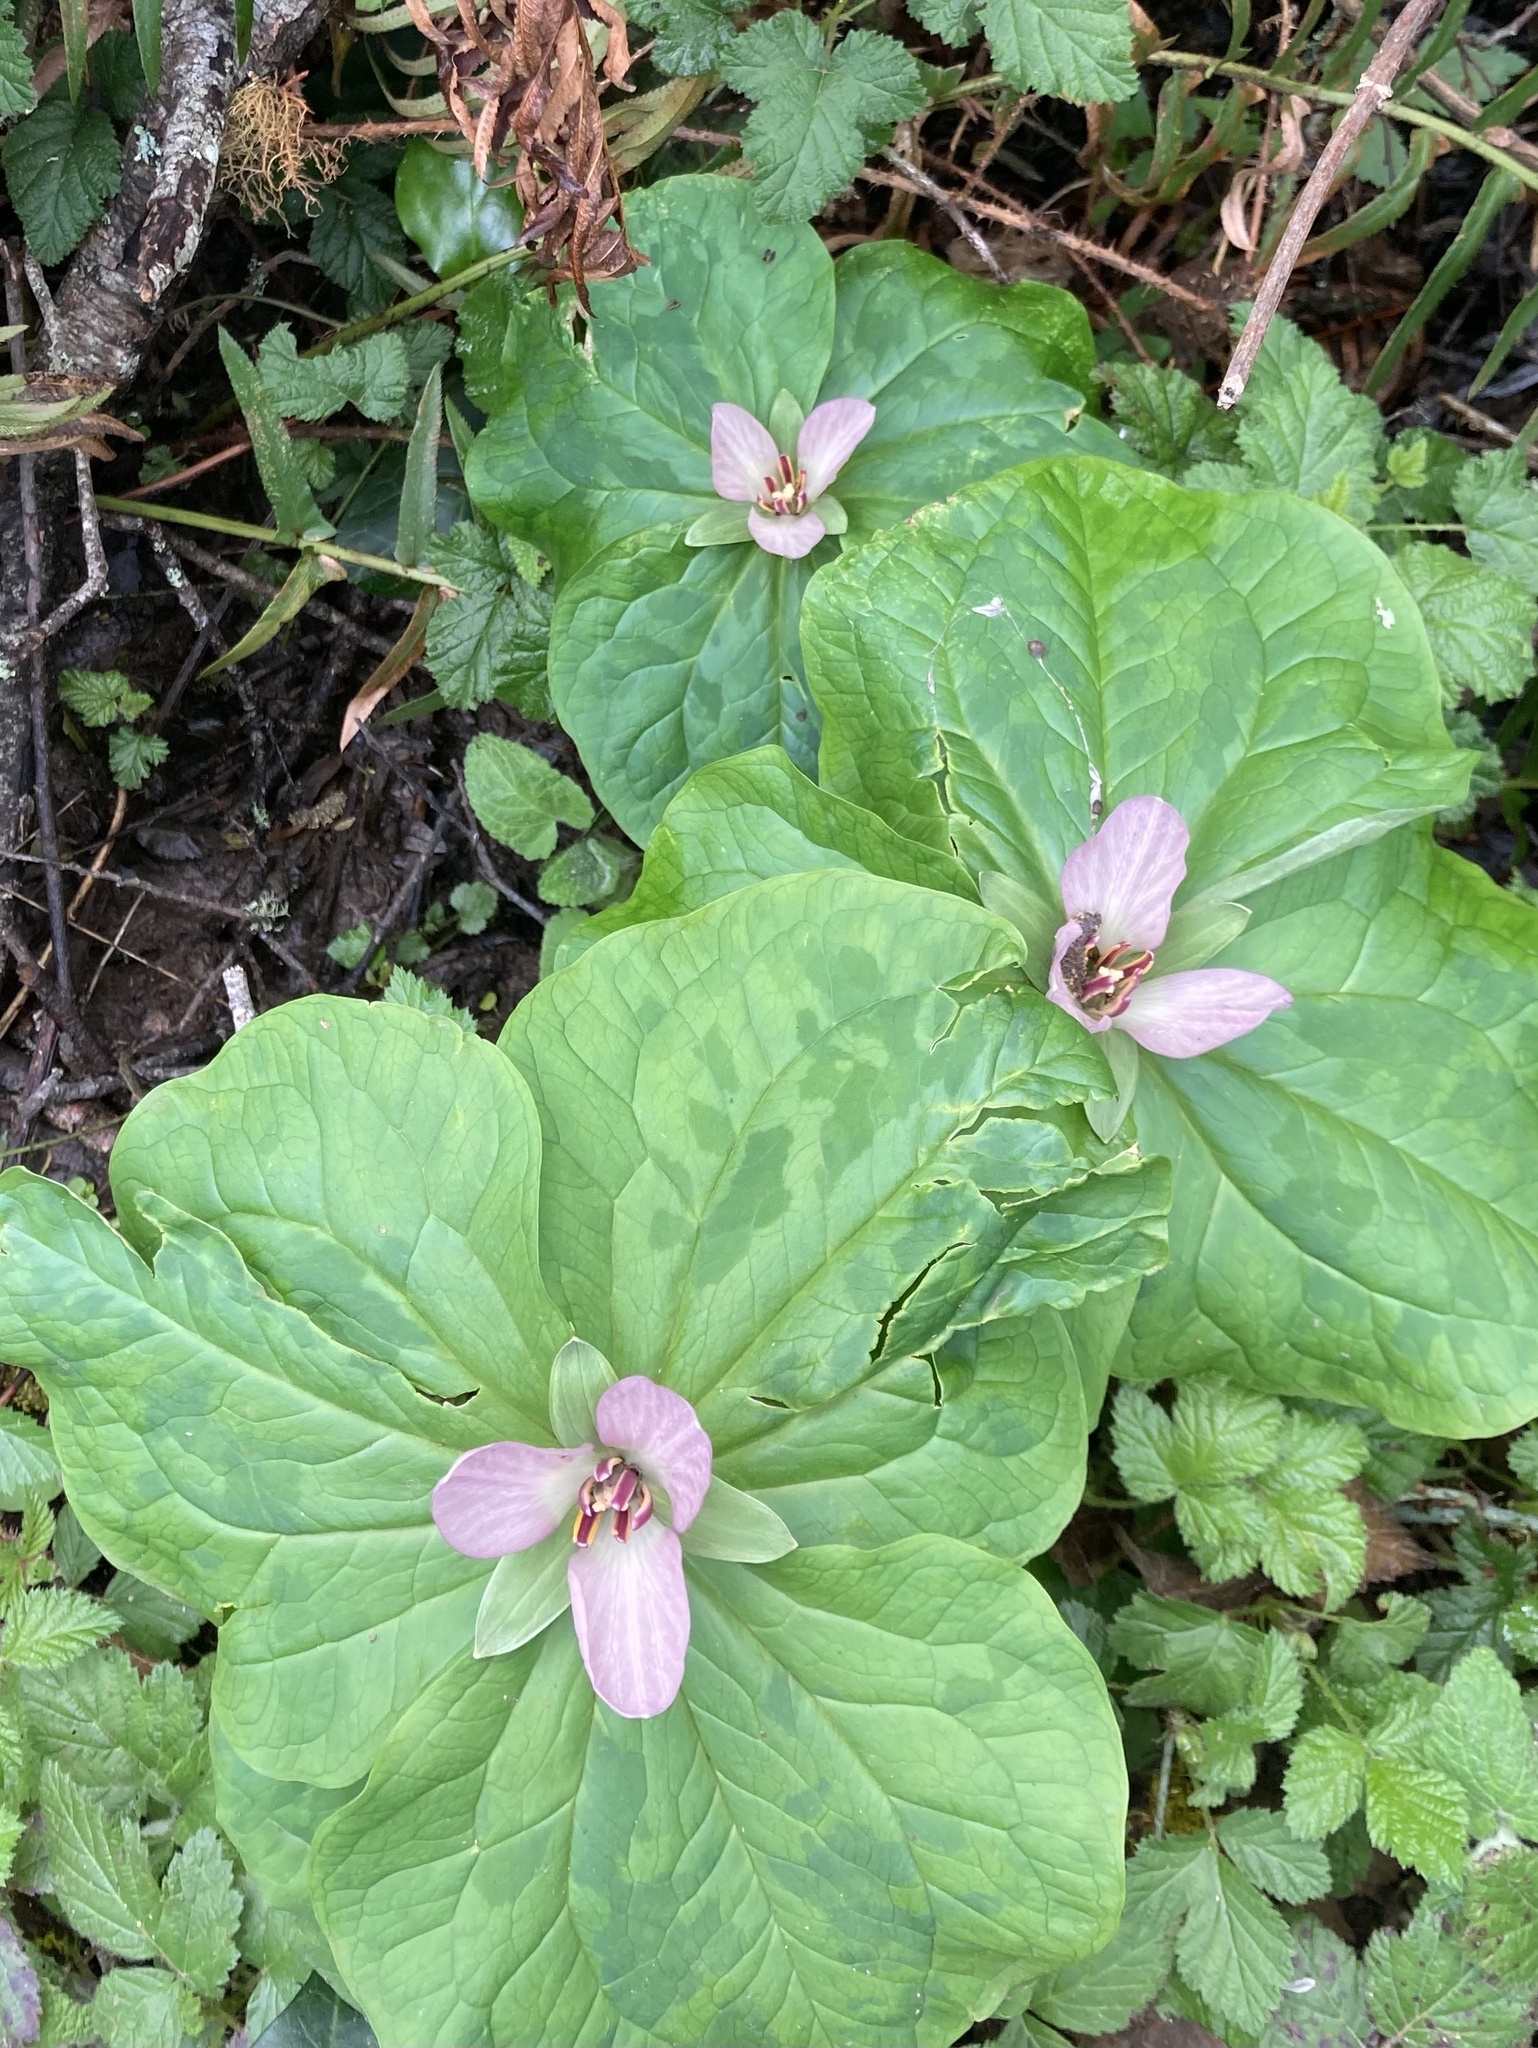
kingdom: Plantae
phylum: Tracheophyta
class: Liliopsida
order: Liliales
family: Melanthiaceae
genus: Trillium
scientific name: Trillium chloropetalum
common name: Giant trillium
